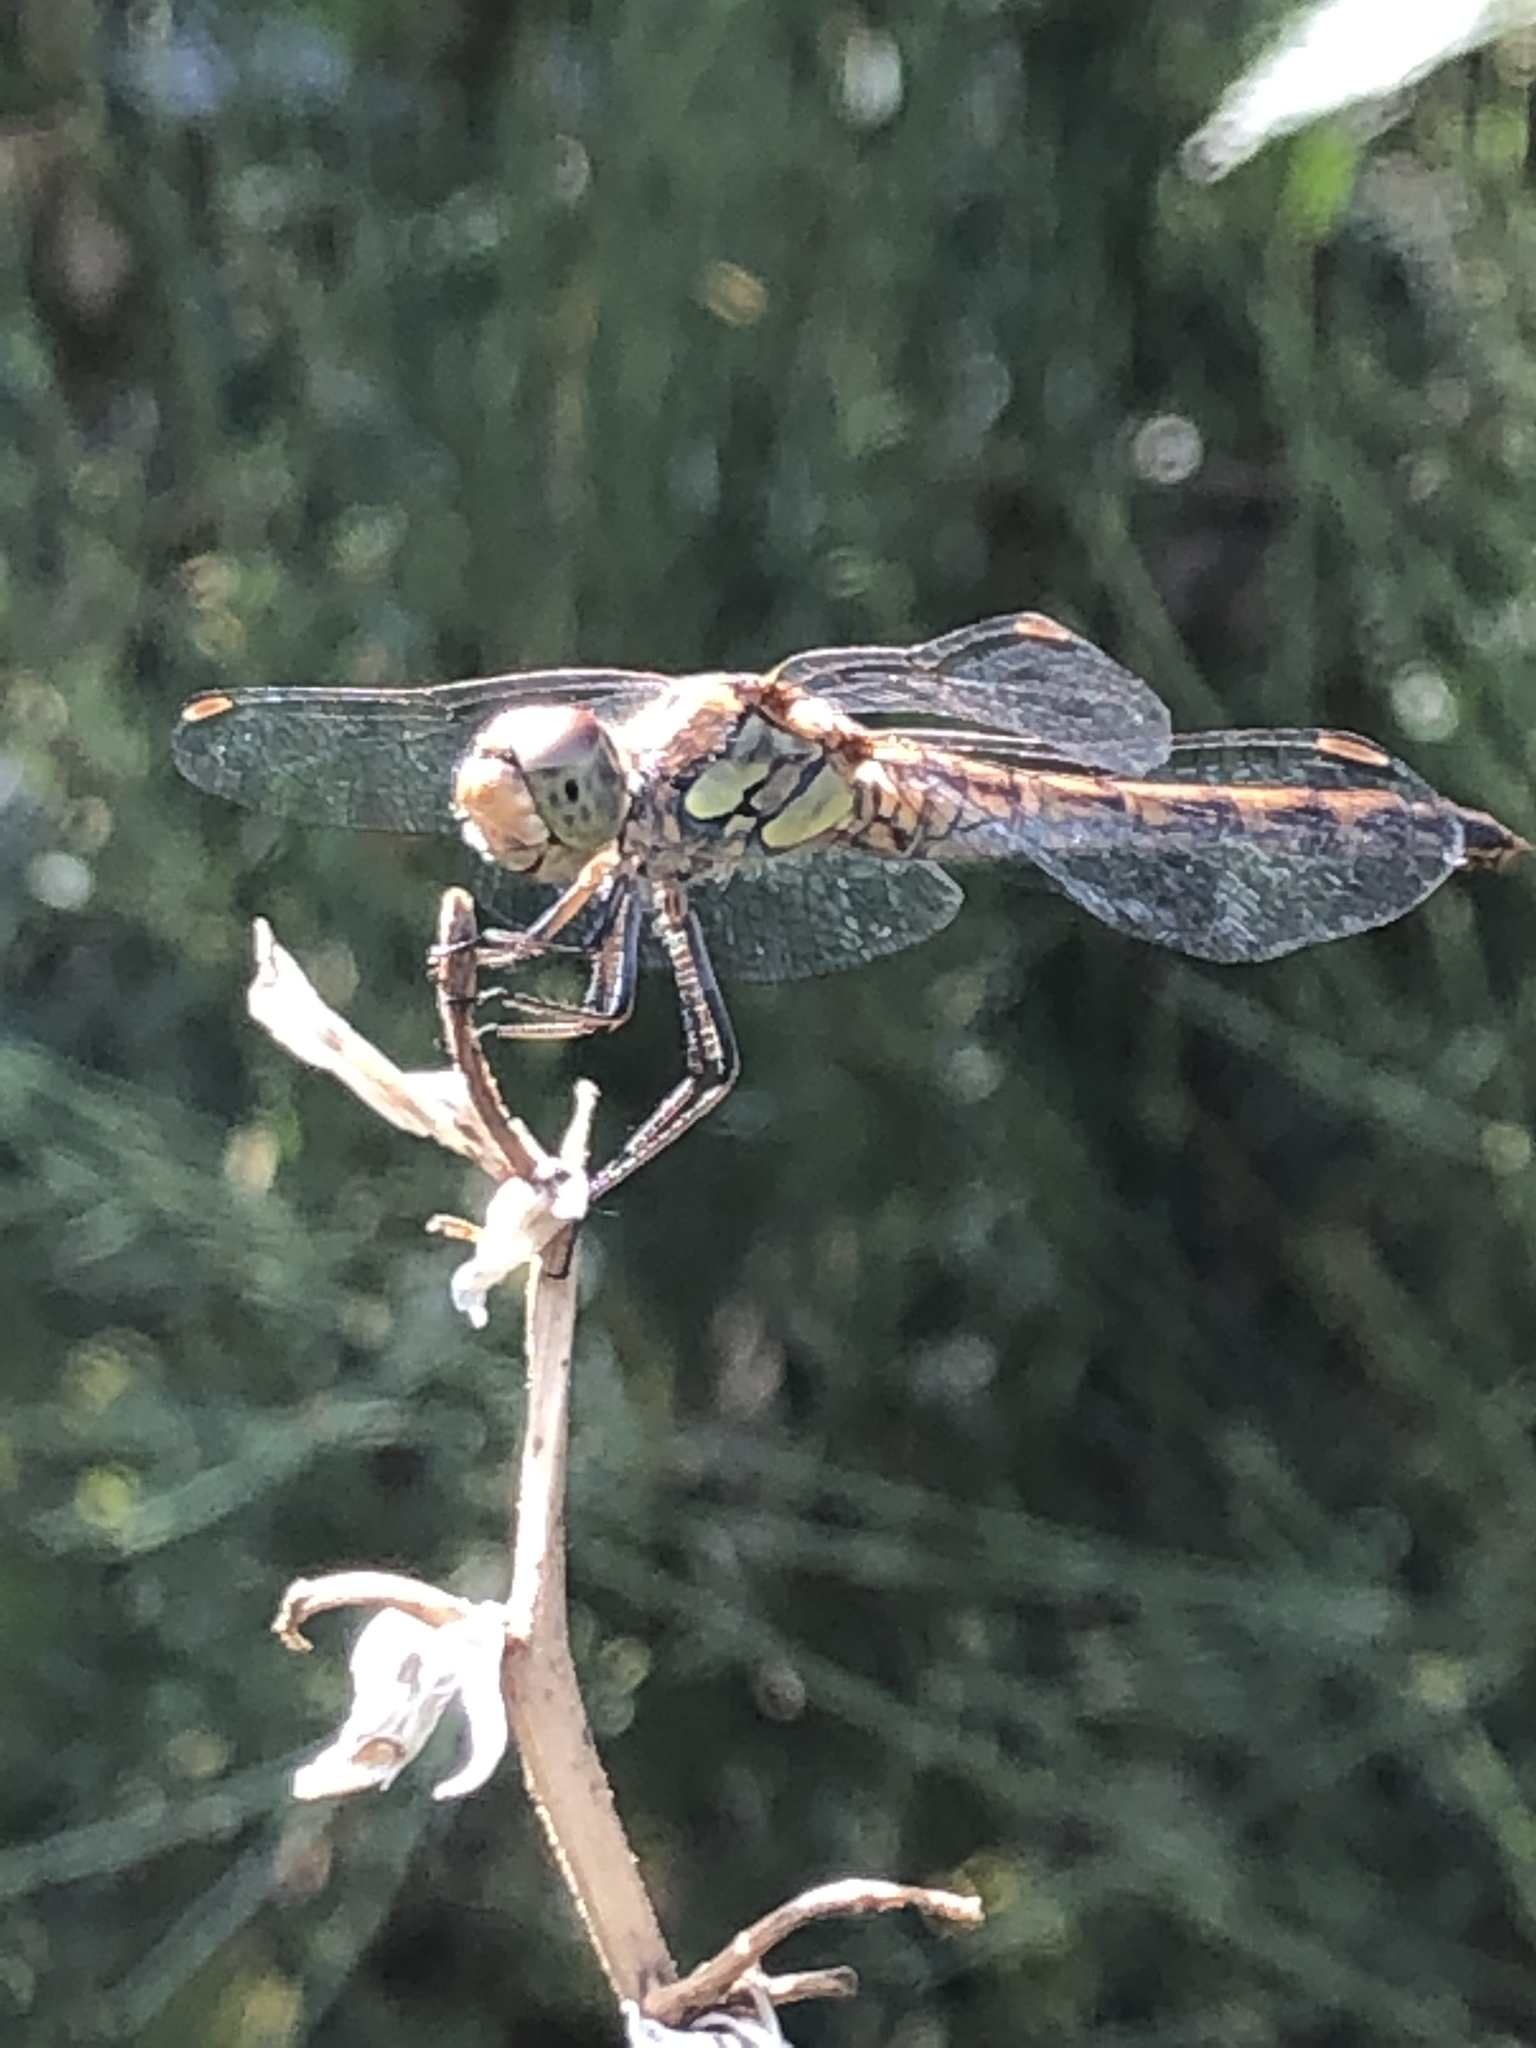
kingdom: Animalia
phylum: Arthropoda
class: Insecta
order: Odonata
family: Libellulidae
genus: Sympetrum
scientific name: Sympetrum striolatum
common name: Common darter
